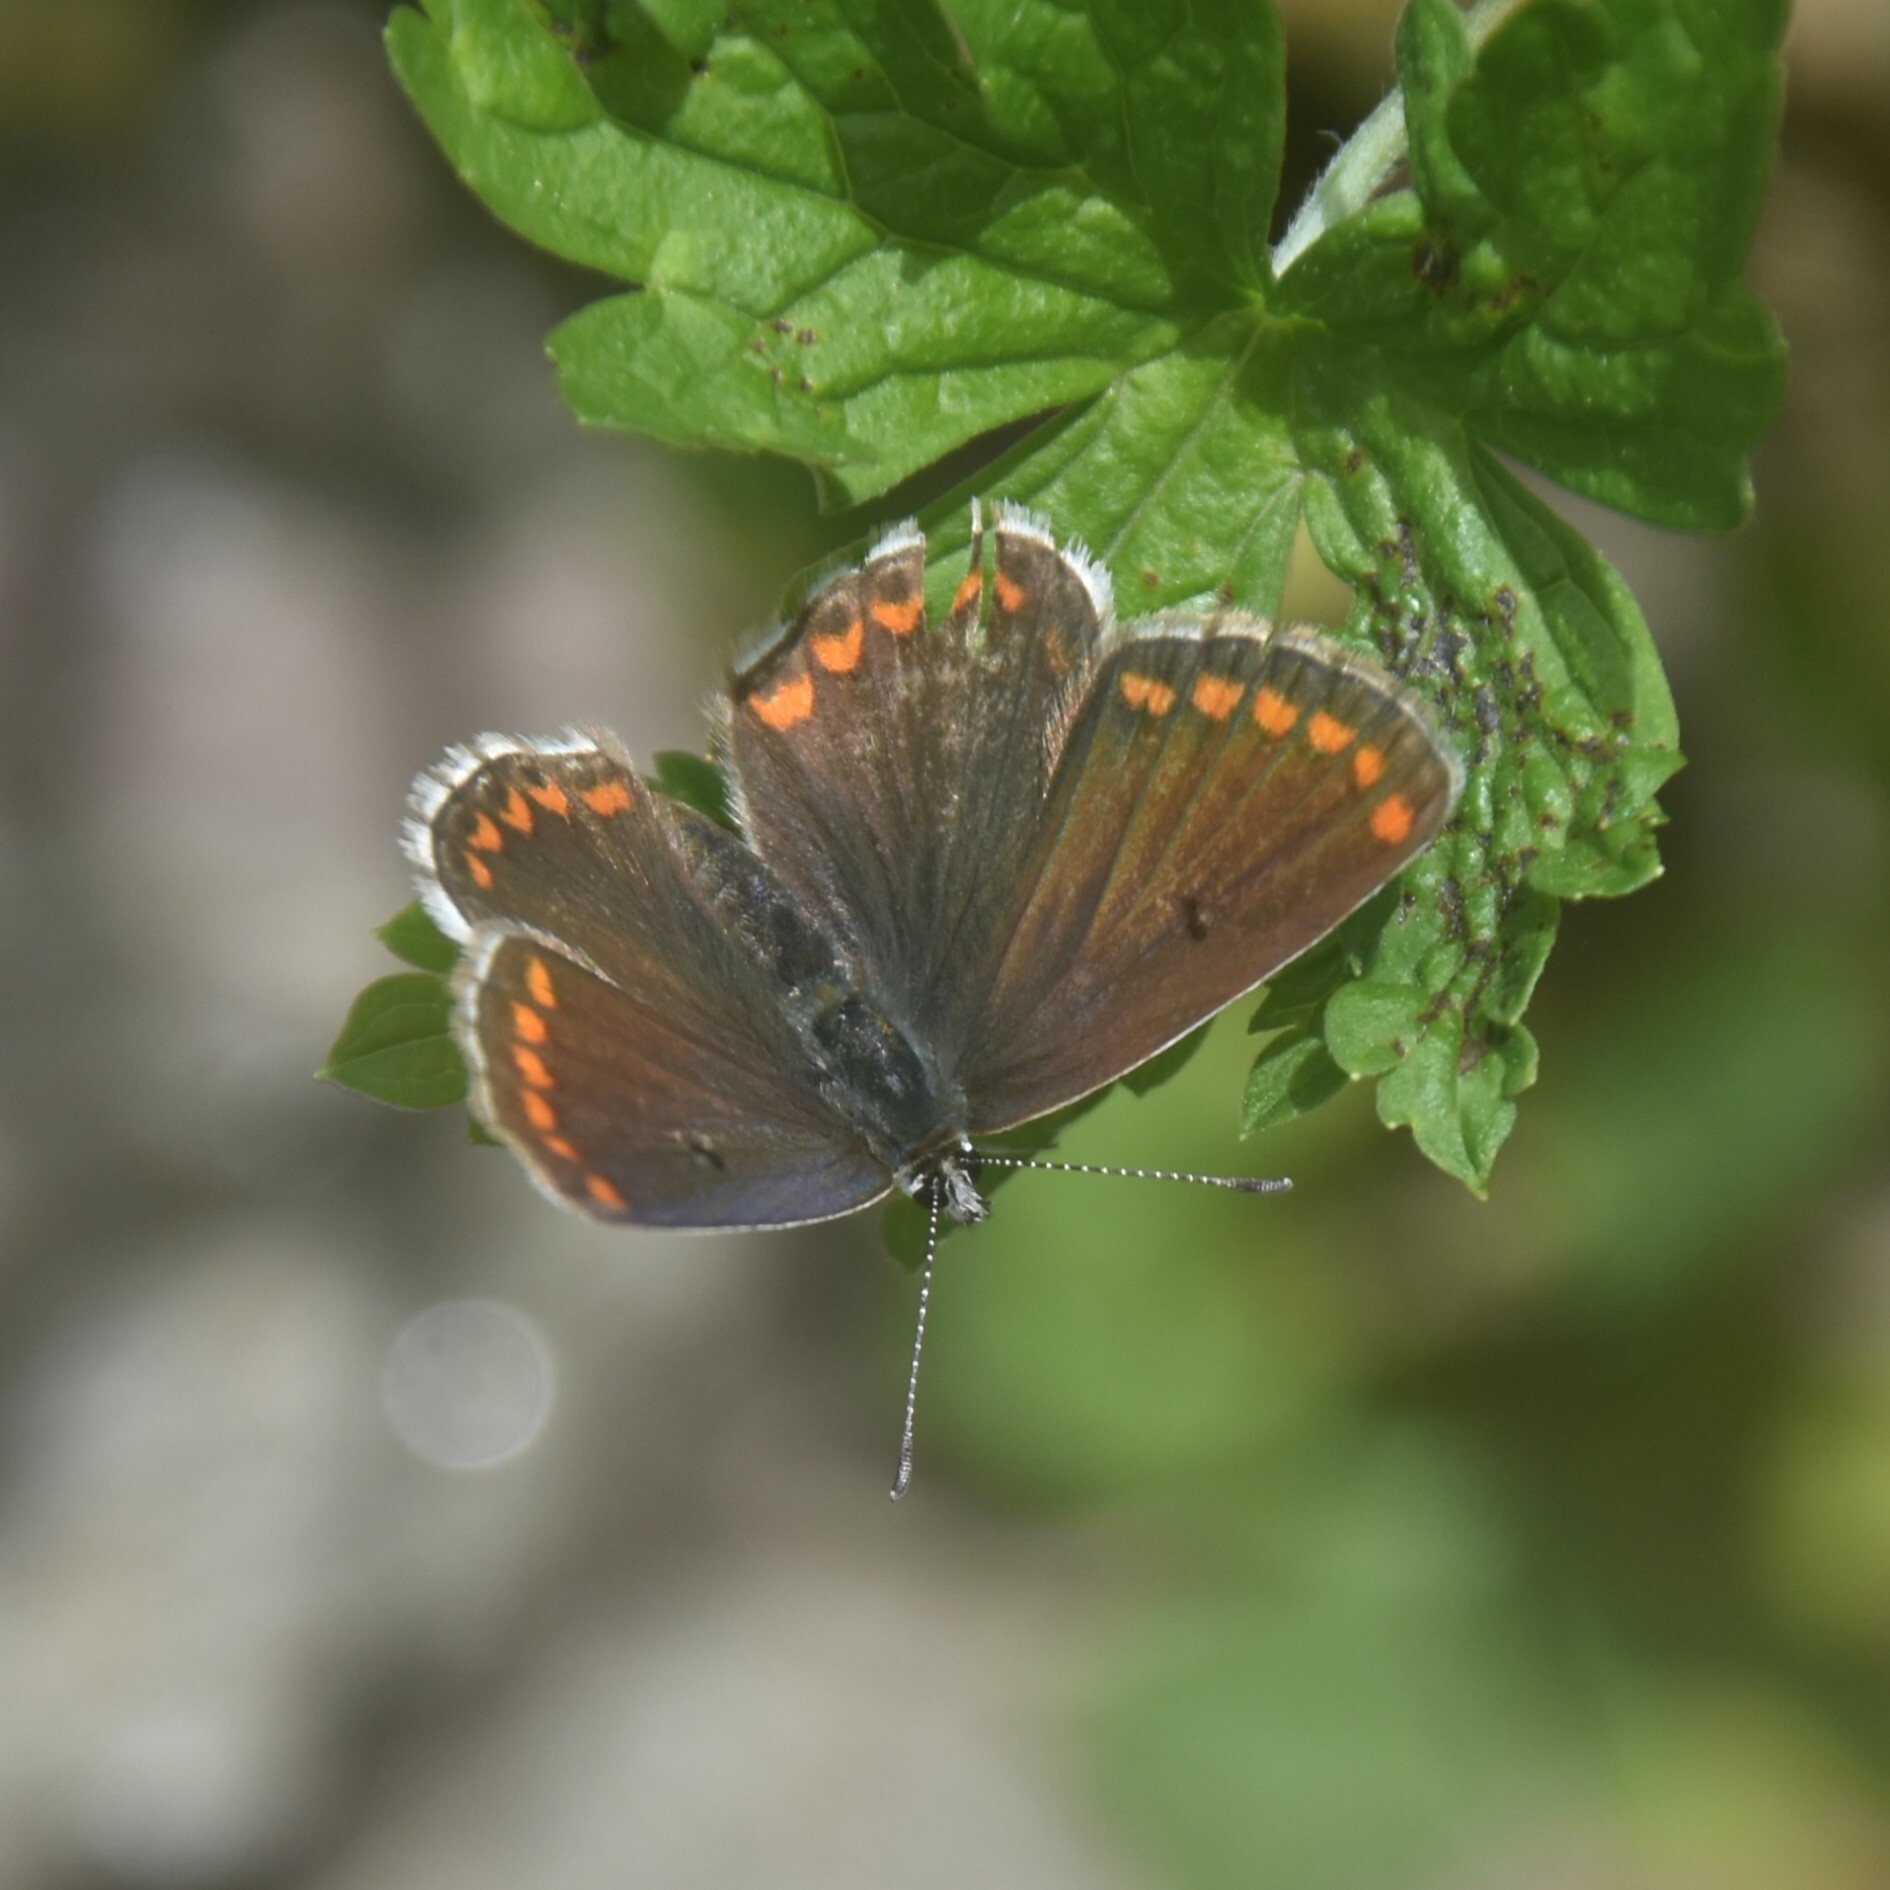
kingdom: Animalia
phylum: Arthropoda
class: Insecta
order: Lepidoptera
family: Lycaenidae
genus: Aricia
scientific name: Aricia agestis
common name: Brown argus
